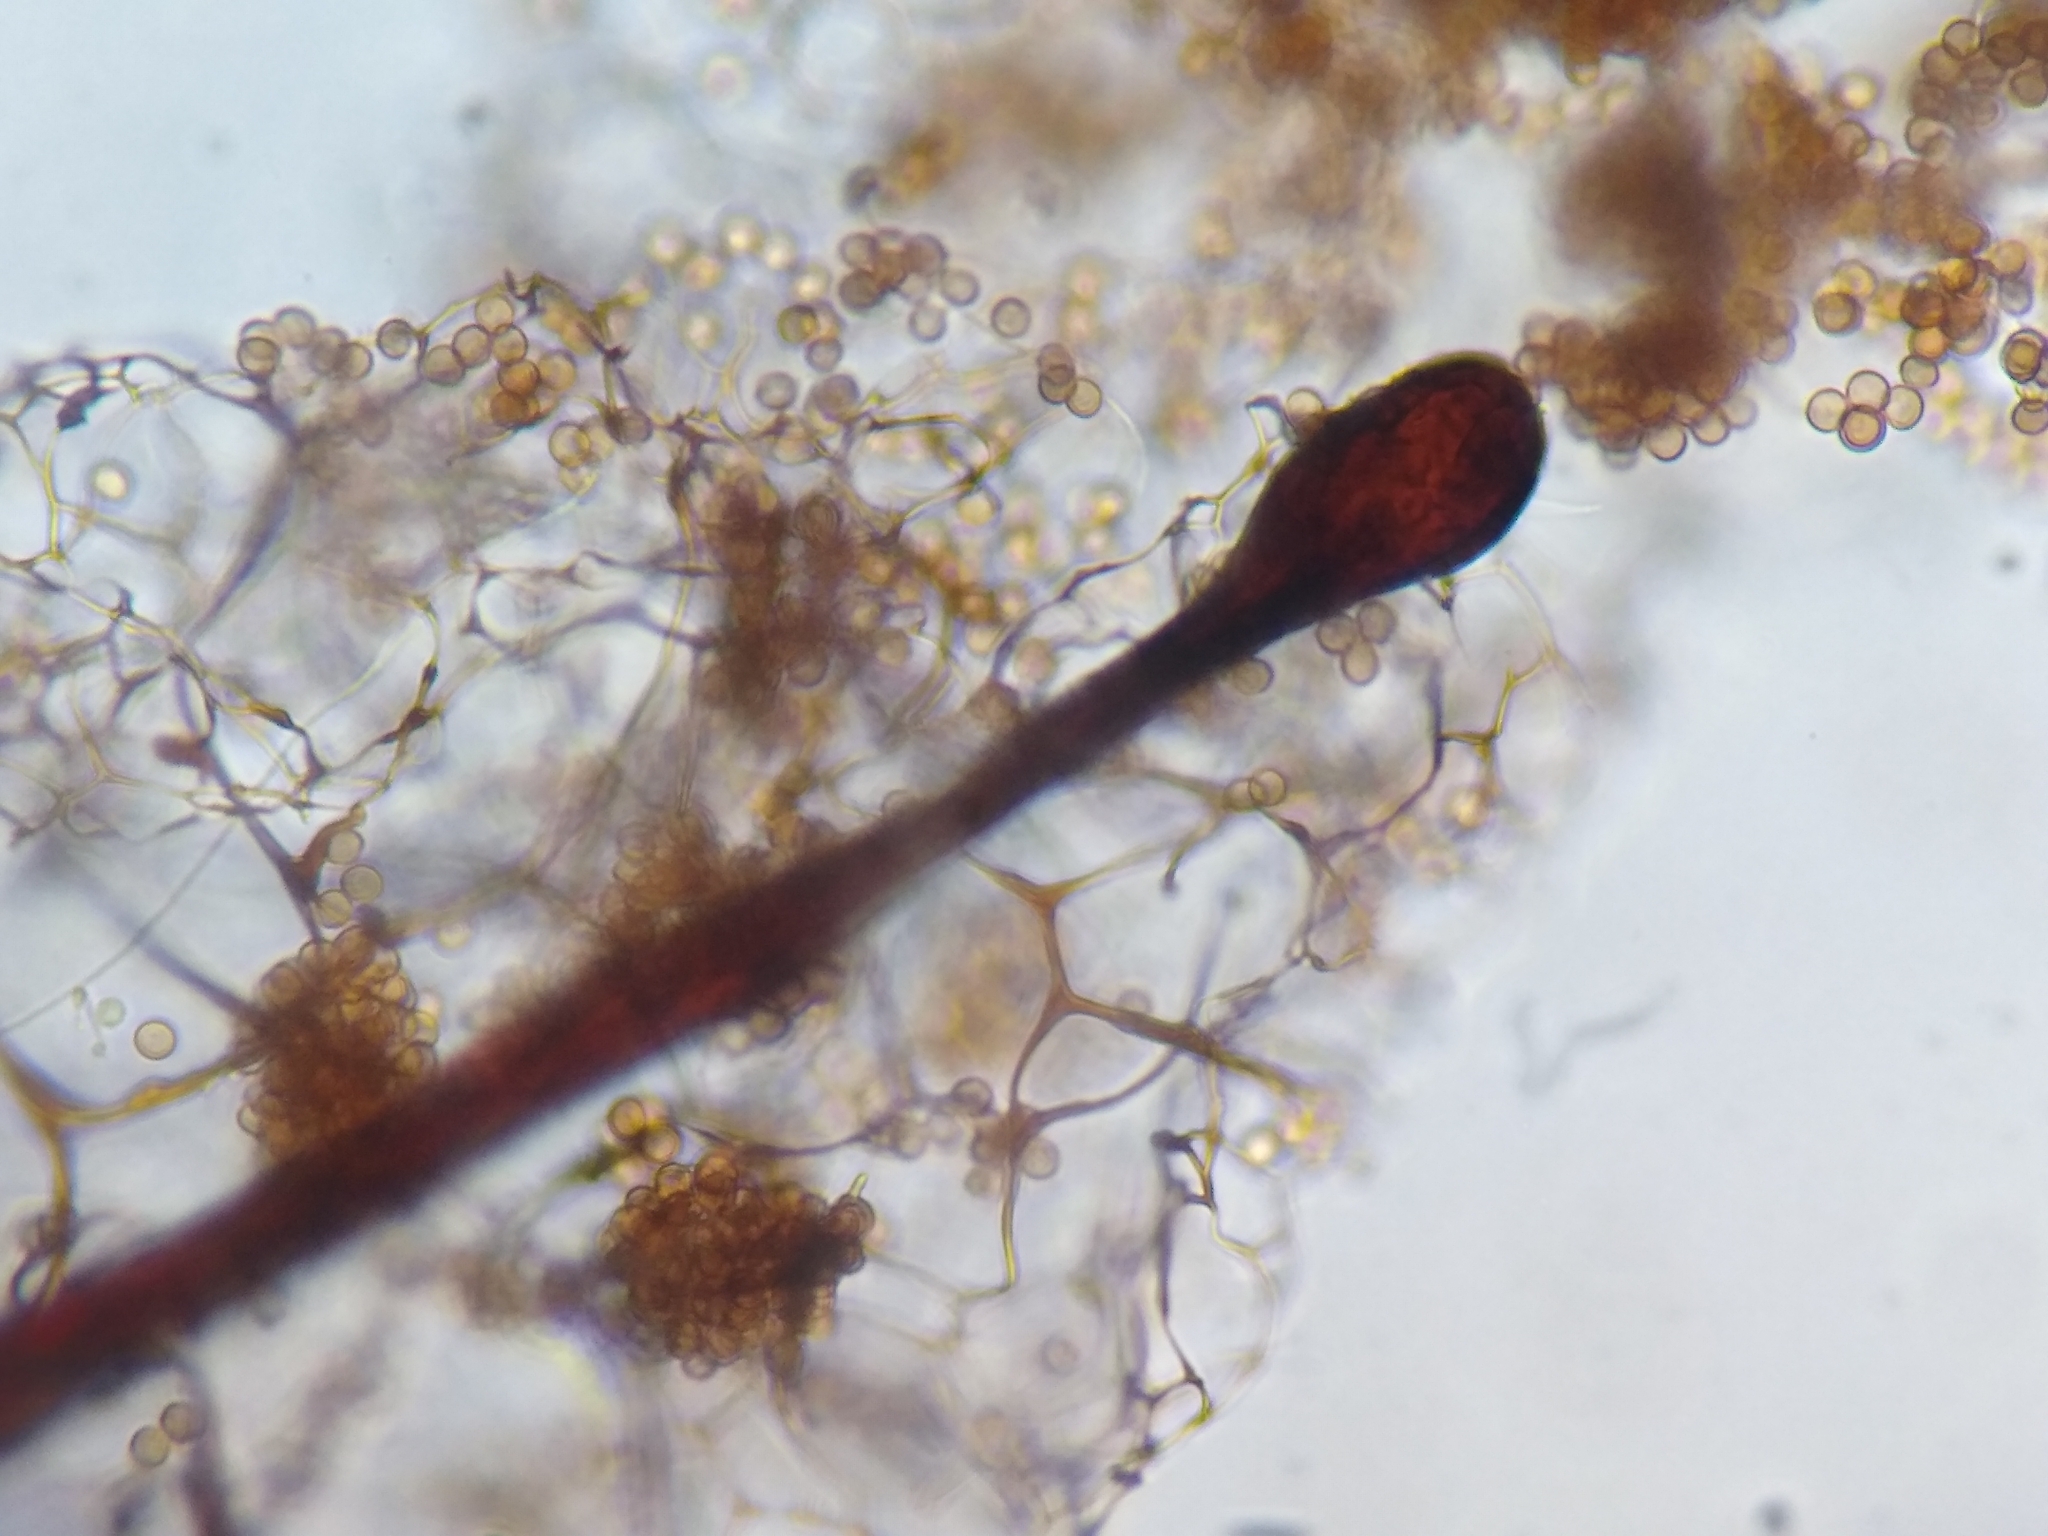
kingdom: Protozoa
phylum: Mycetozoa
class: Myxomycetes
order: Stemonitidales
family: Stemonitidaceae
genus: Stemonitis
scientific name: Stemonitis flavogenita
